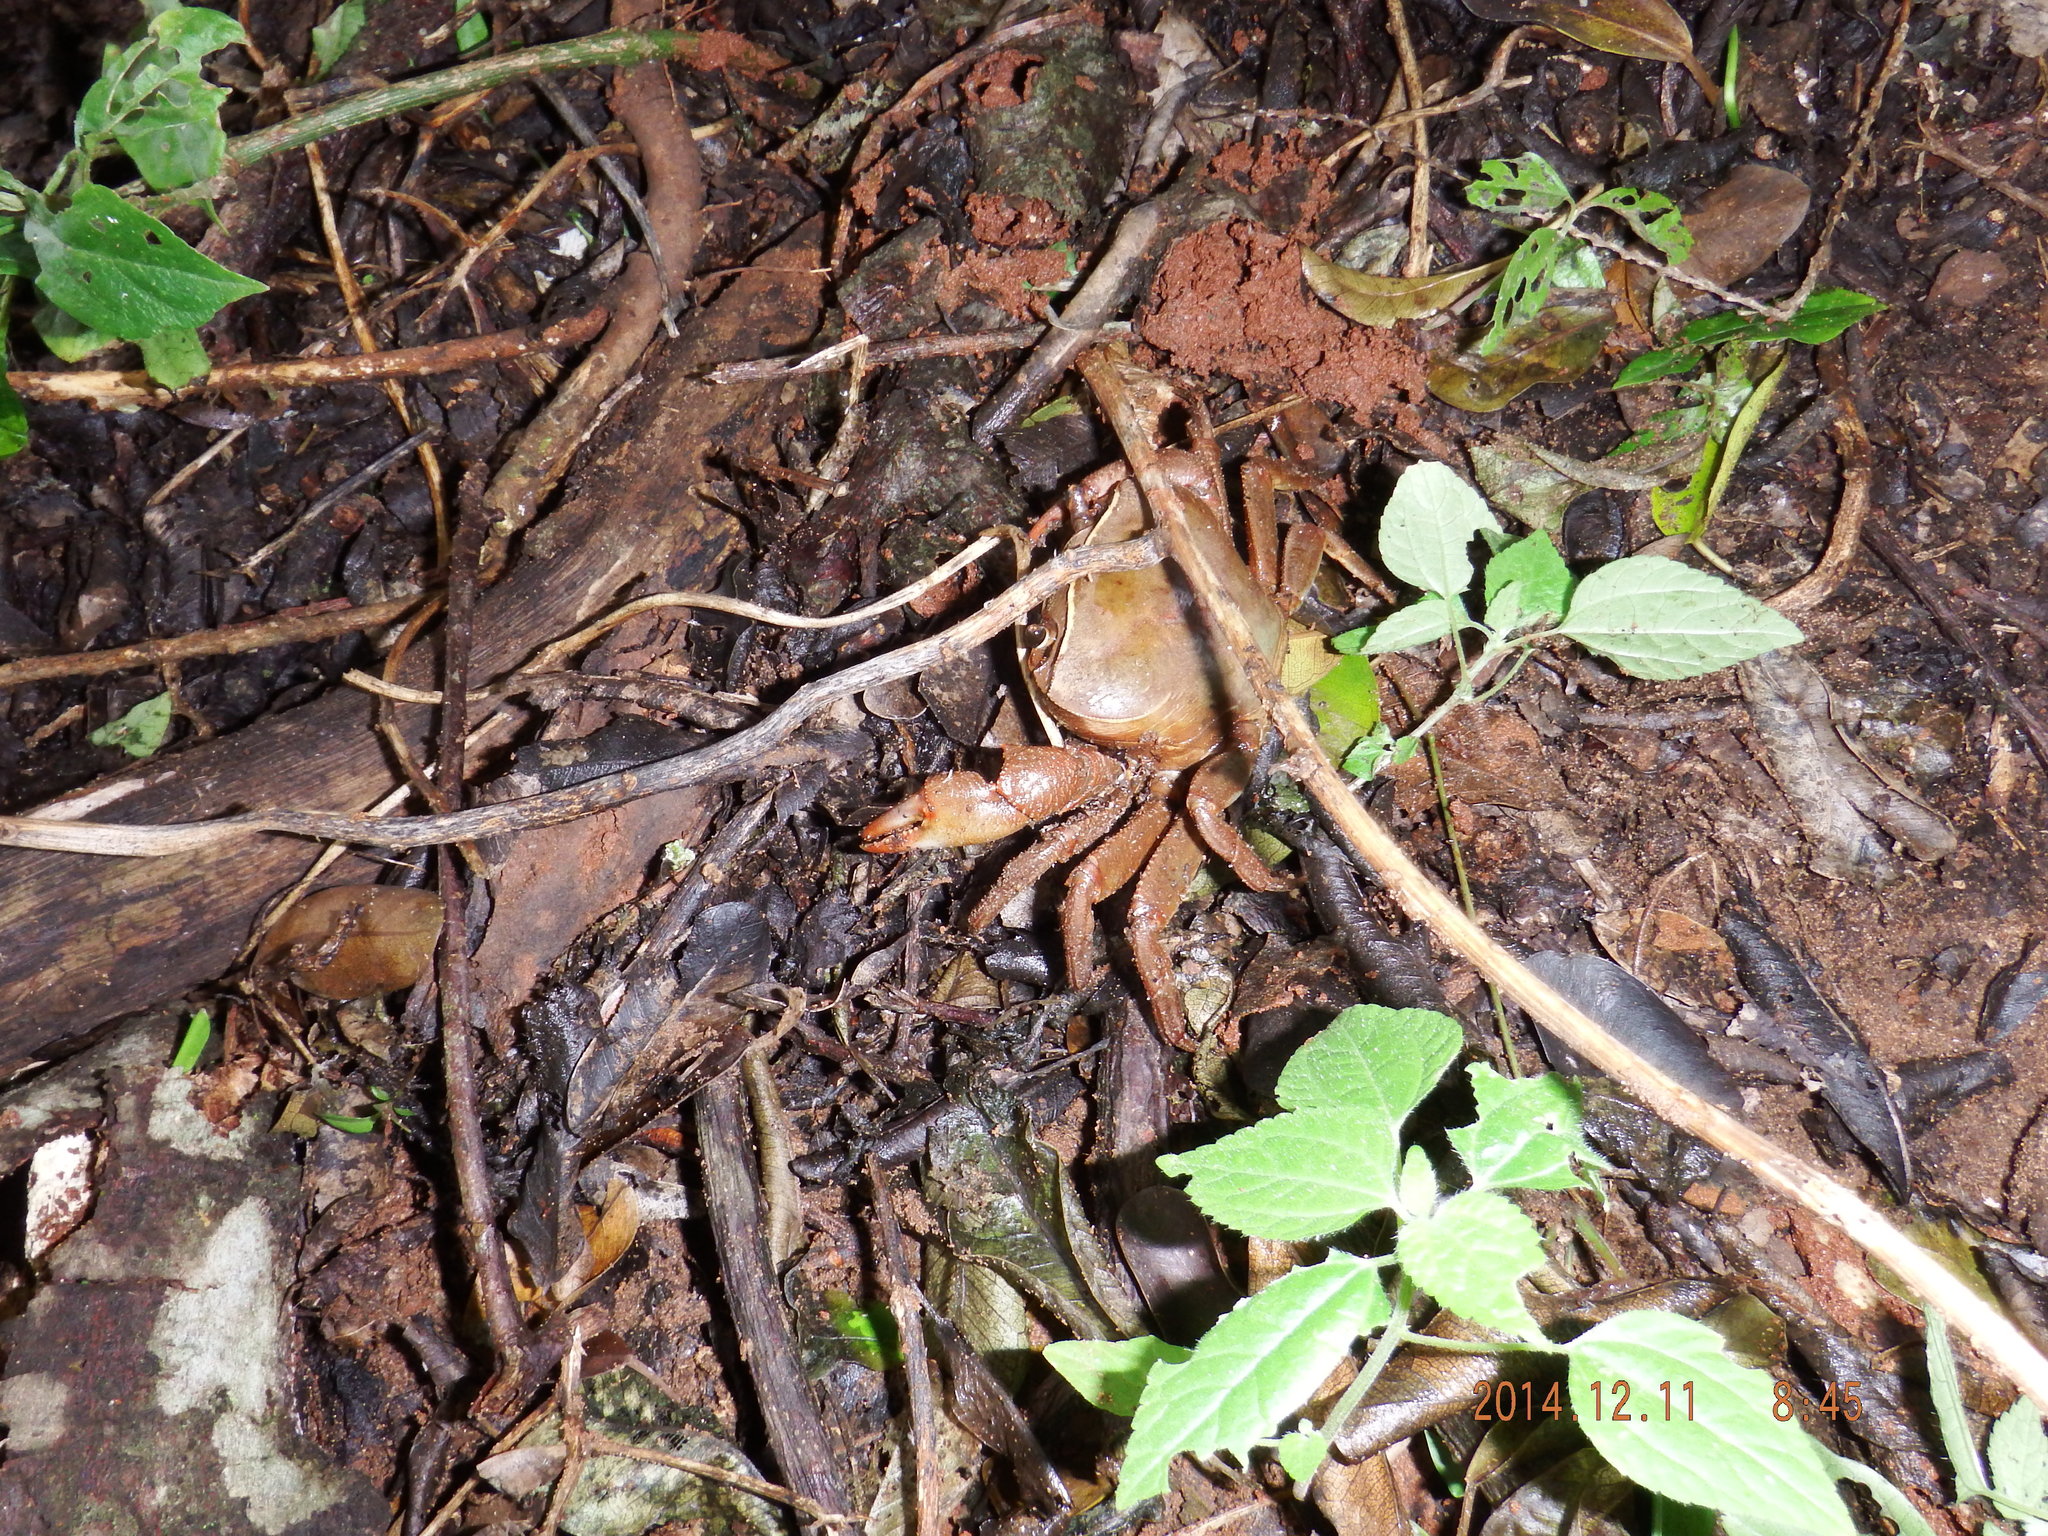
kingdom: Animalia
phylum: Arthropoda
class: Malacostraca
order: Decapoda
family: Potamonautidae
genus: Potamonautes
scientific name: Potamonautes sidneyi
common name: Natal river crab
